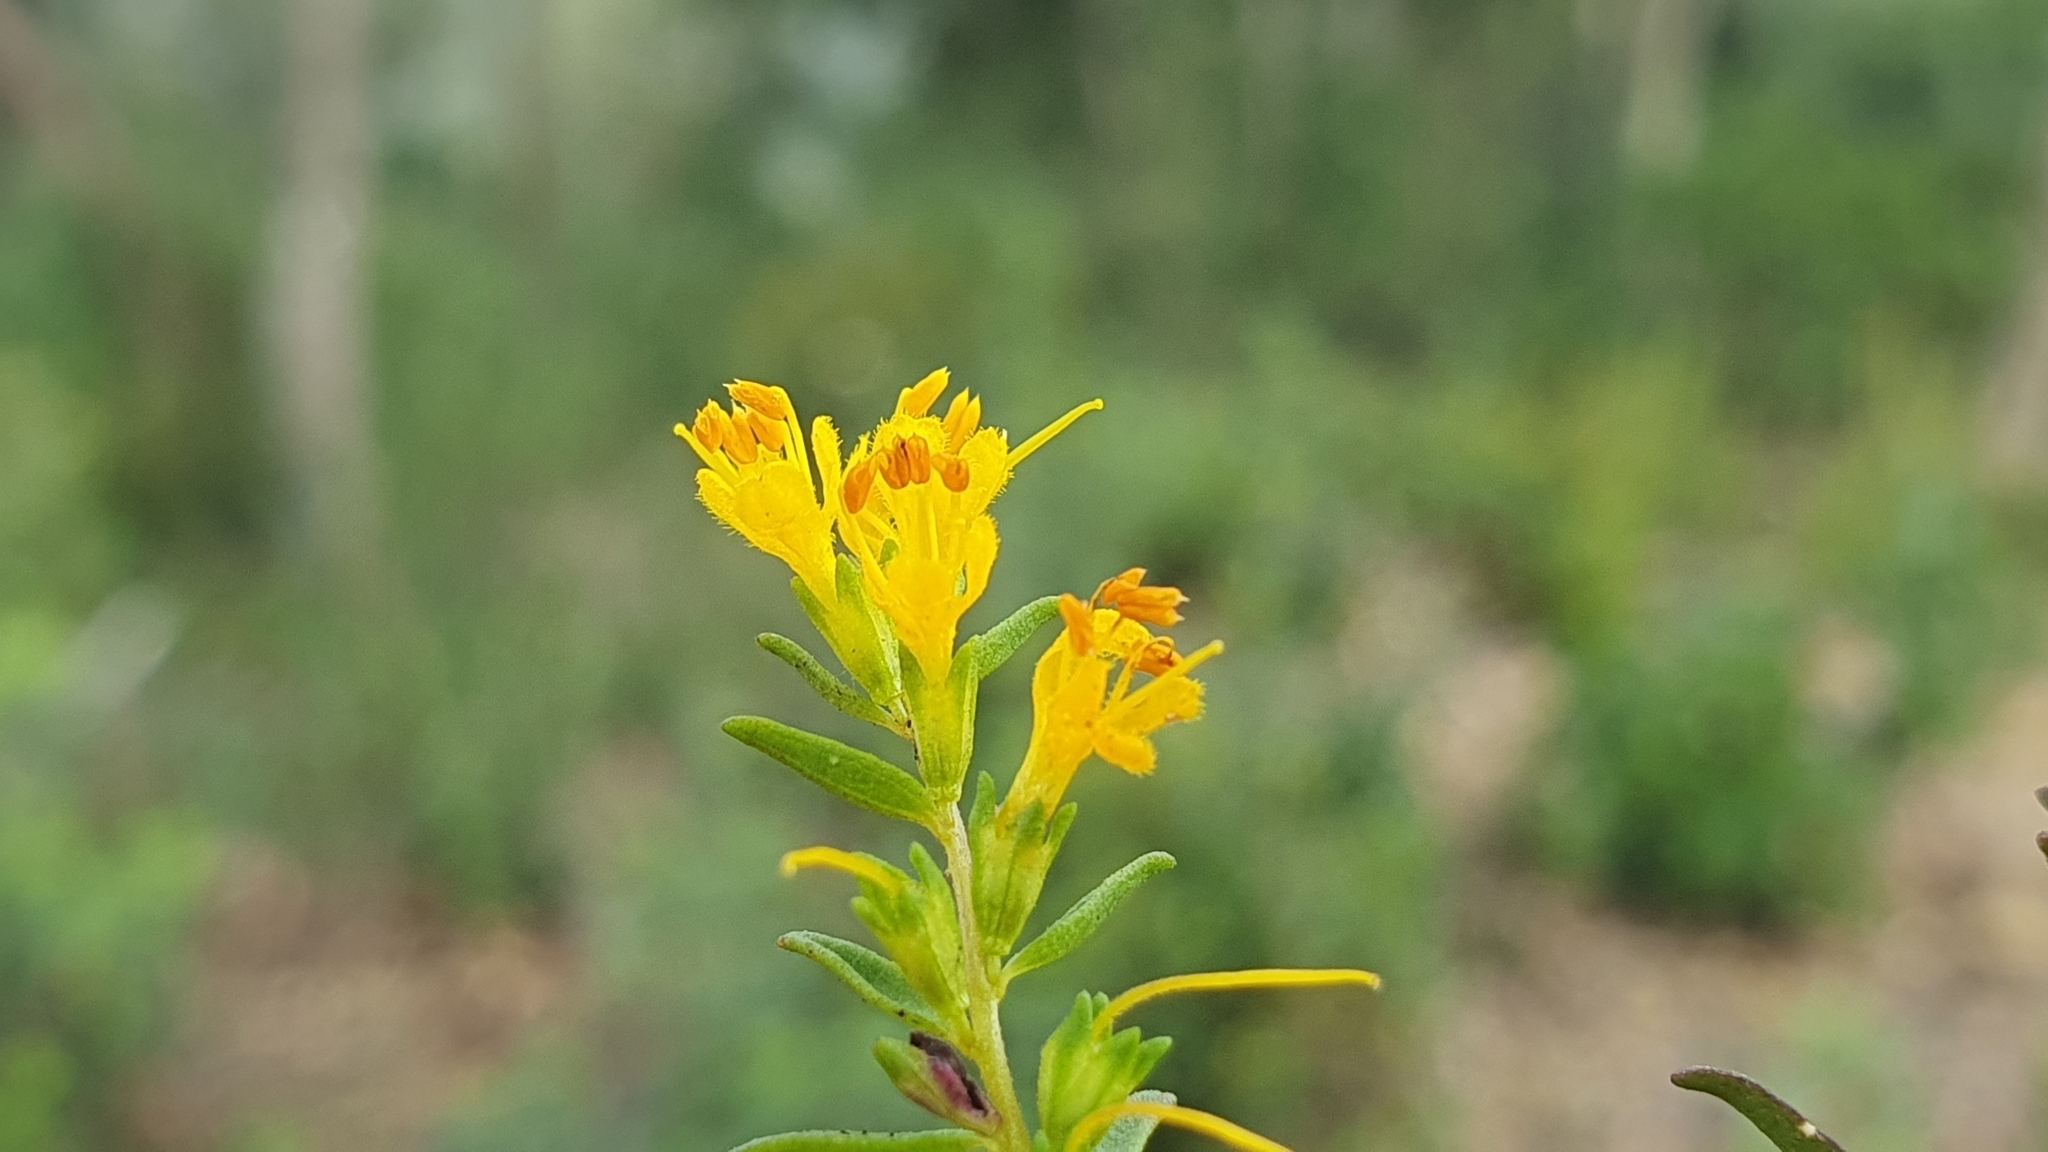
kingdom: Plantae
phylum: Tracheophyta
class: Magnoliopsida
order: Lamiales
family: Orobanchaceae
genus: Odontites
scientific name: Odontites luteus
